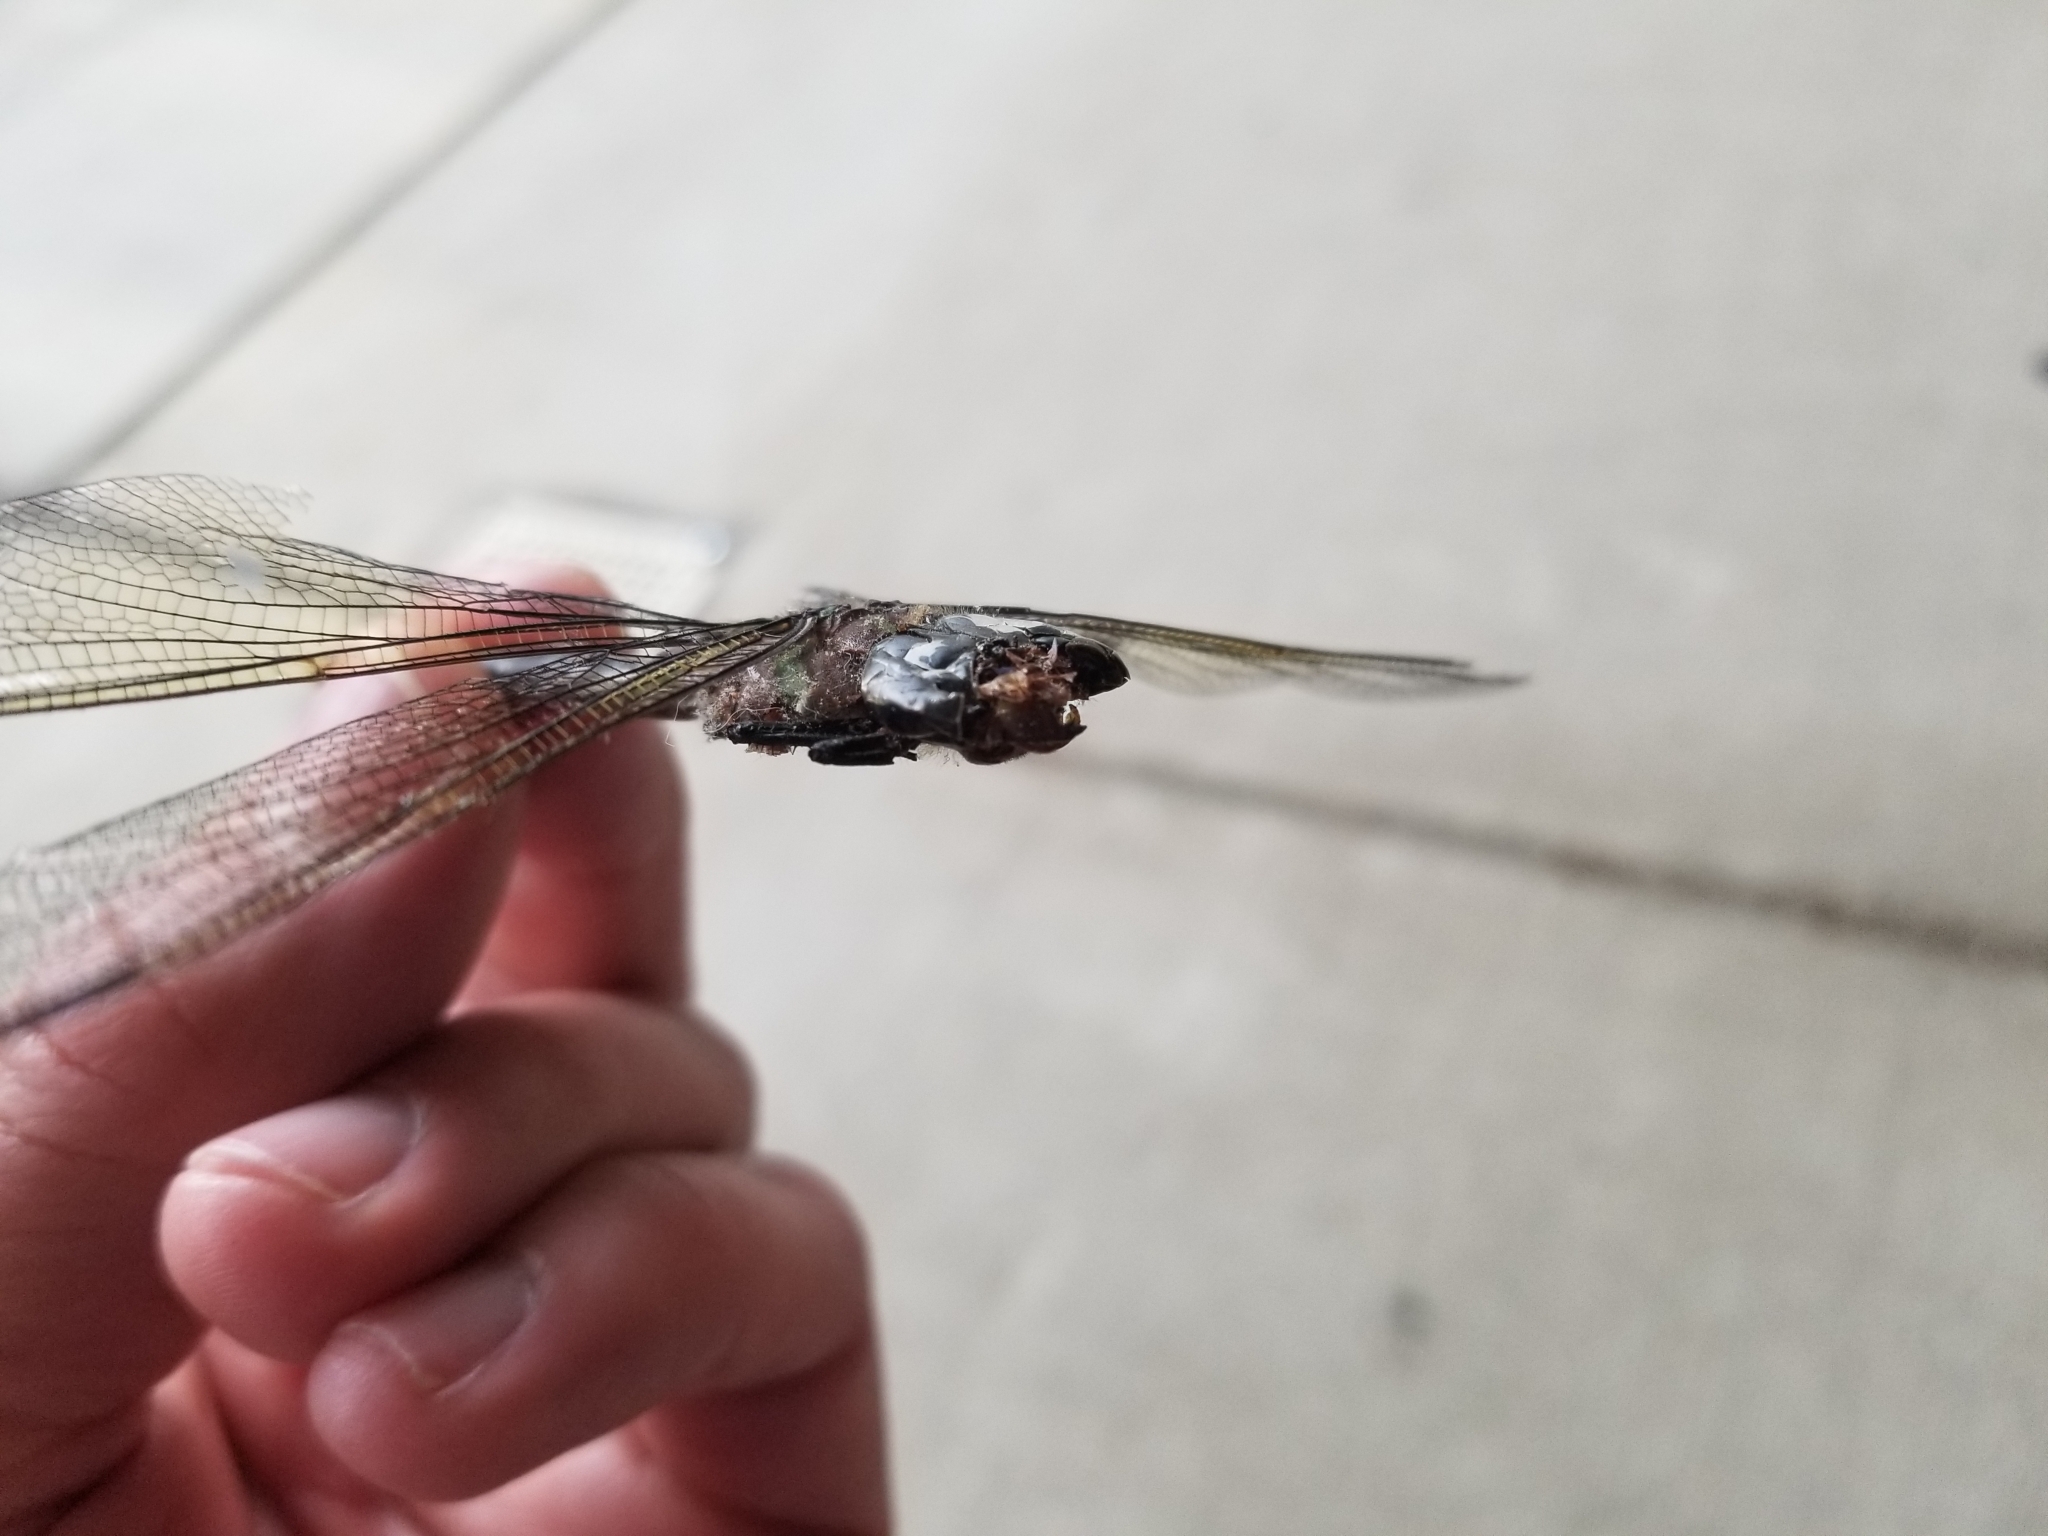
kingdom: Animalia
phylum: Arthropoda
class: Insecta
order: Odonata
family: Aeshnidae
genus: Epiaeschna
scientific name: Epiaeschna heros
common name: Swamp darner
